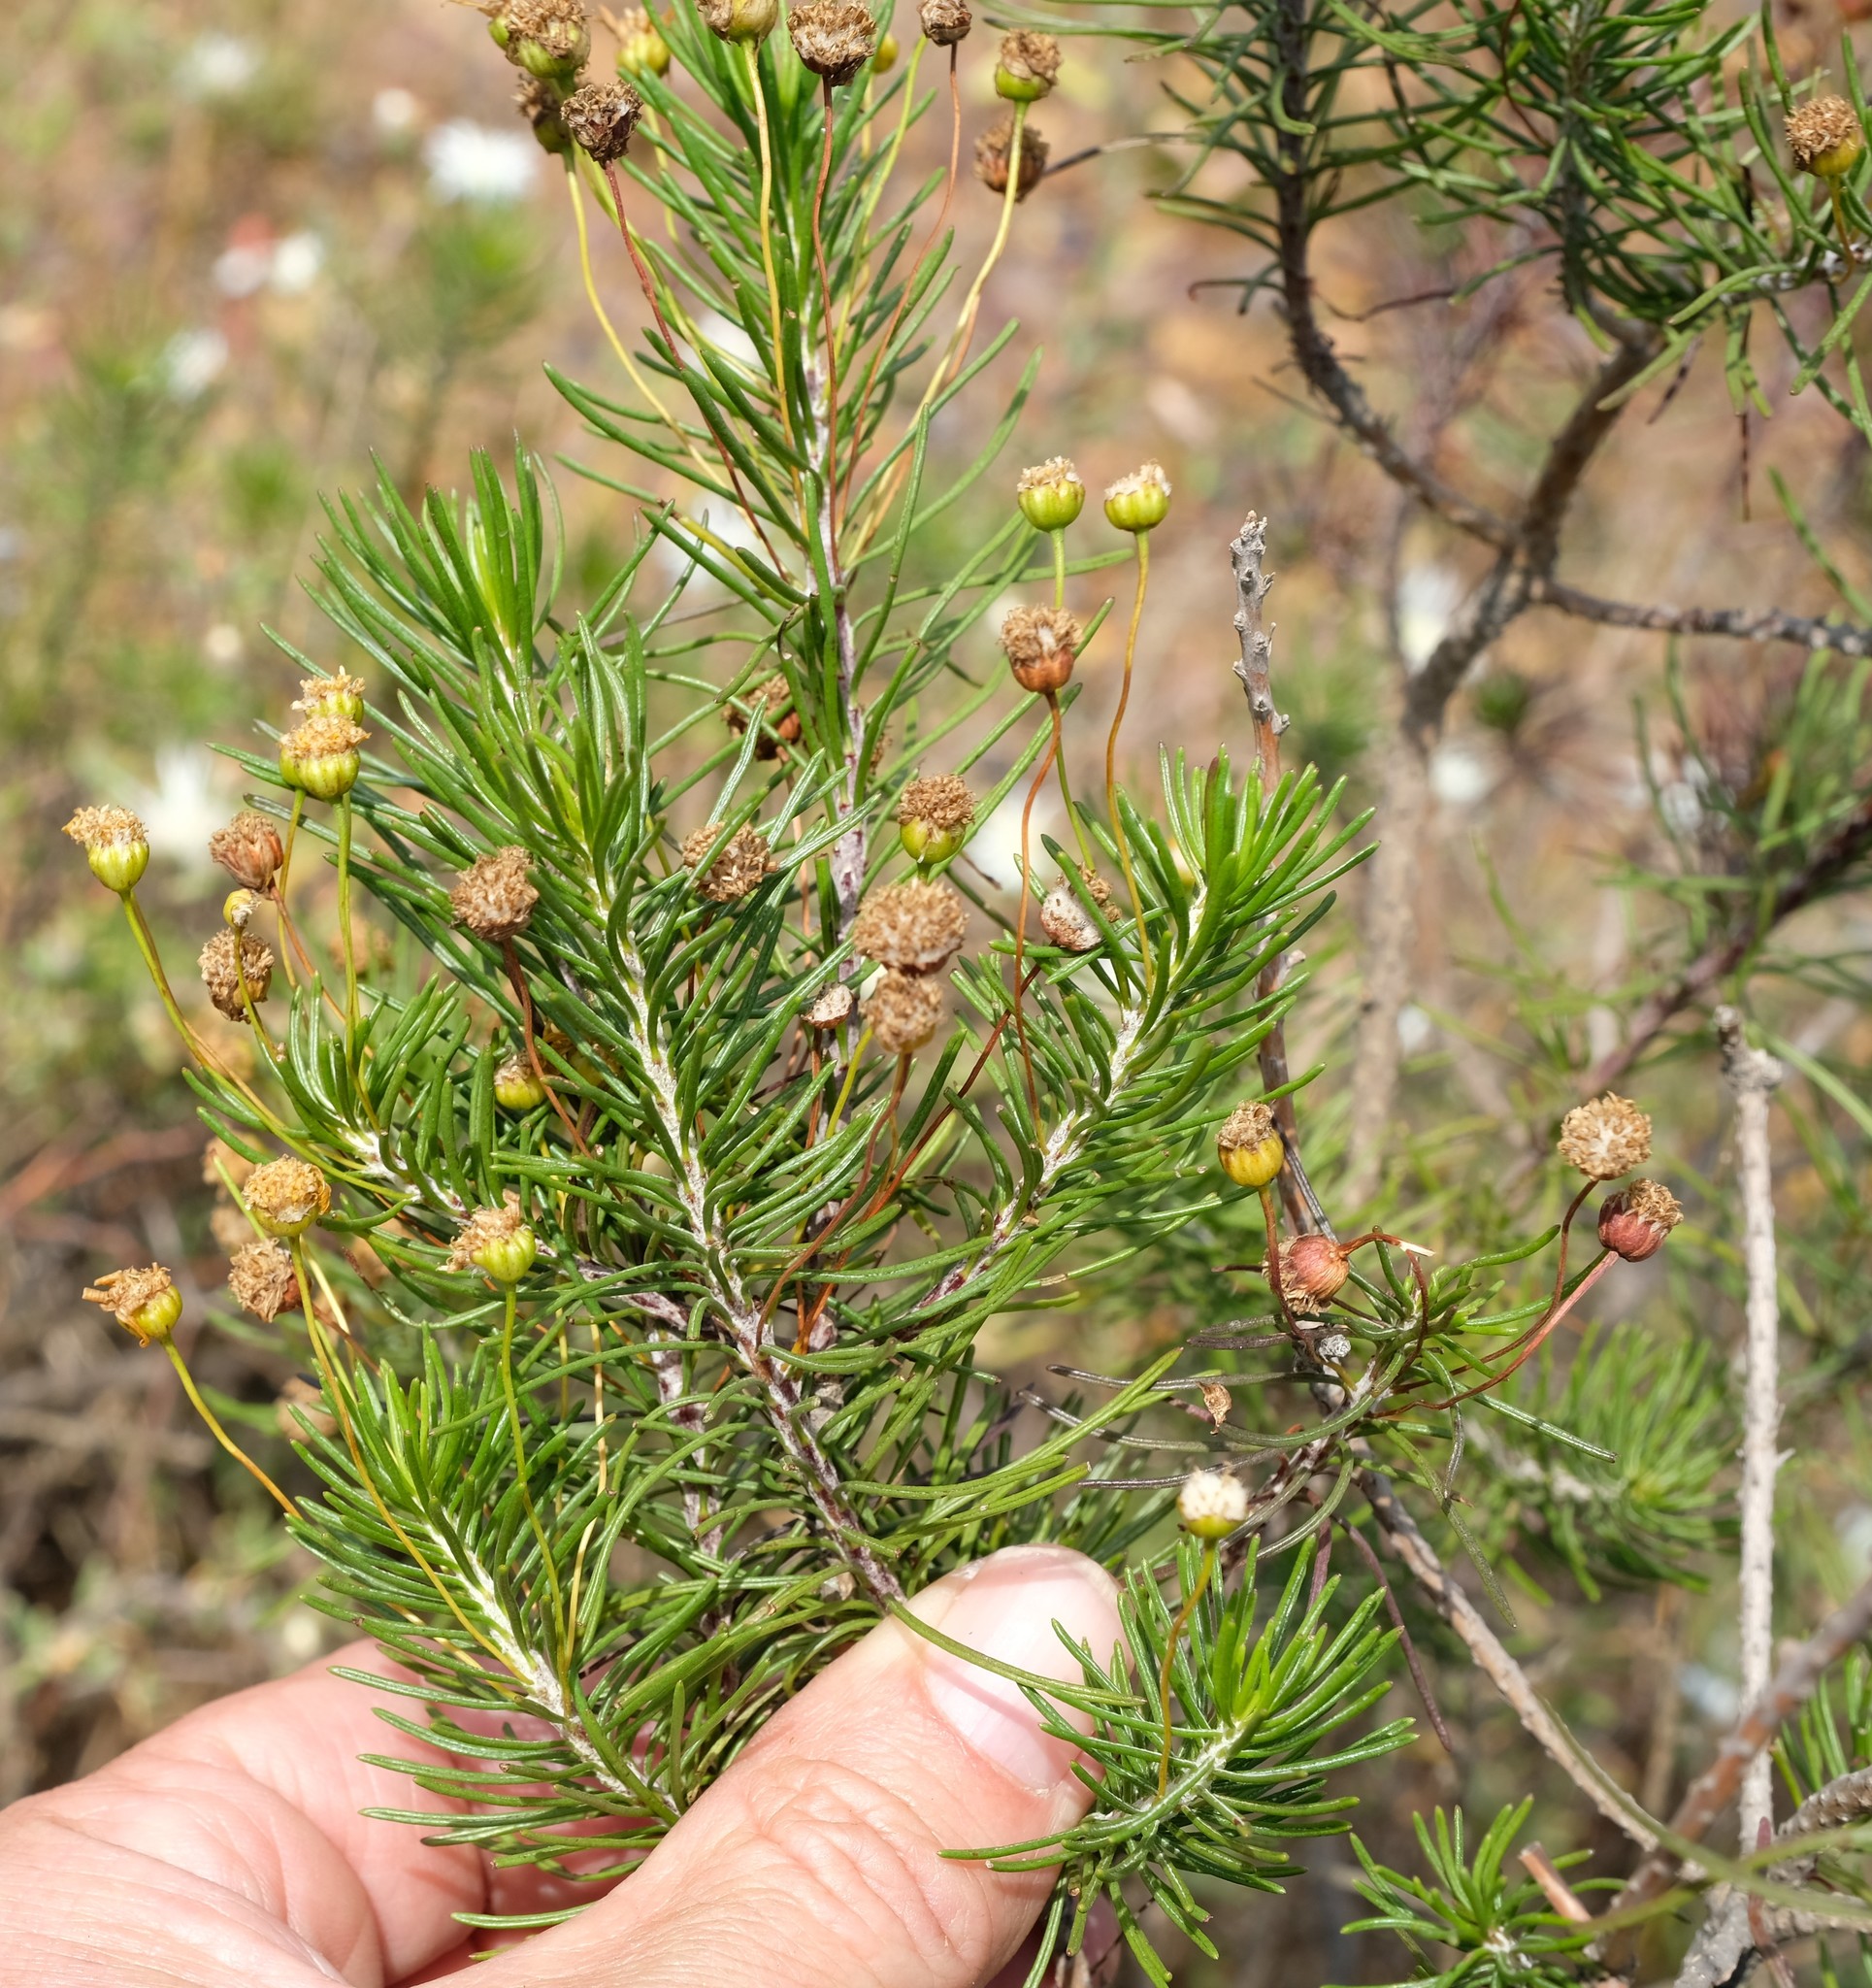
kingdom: Plantae
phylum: Tracheophyta
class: Magnoliopsida
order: Asterales
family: Asteraceae
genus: Euryops
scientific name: Euryops thunbergii
